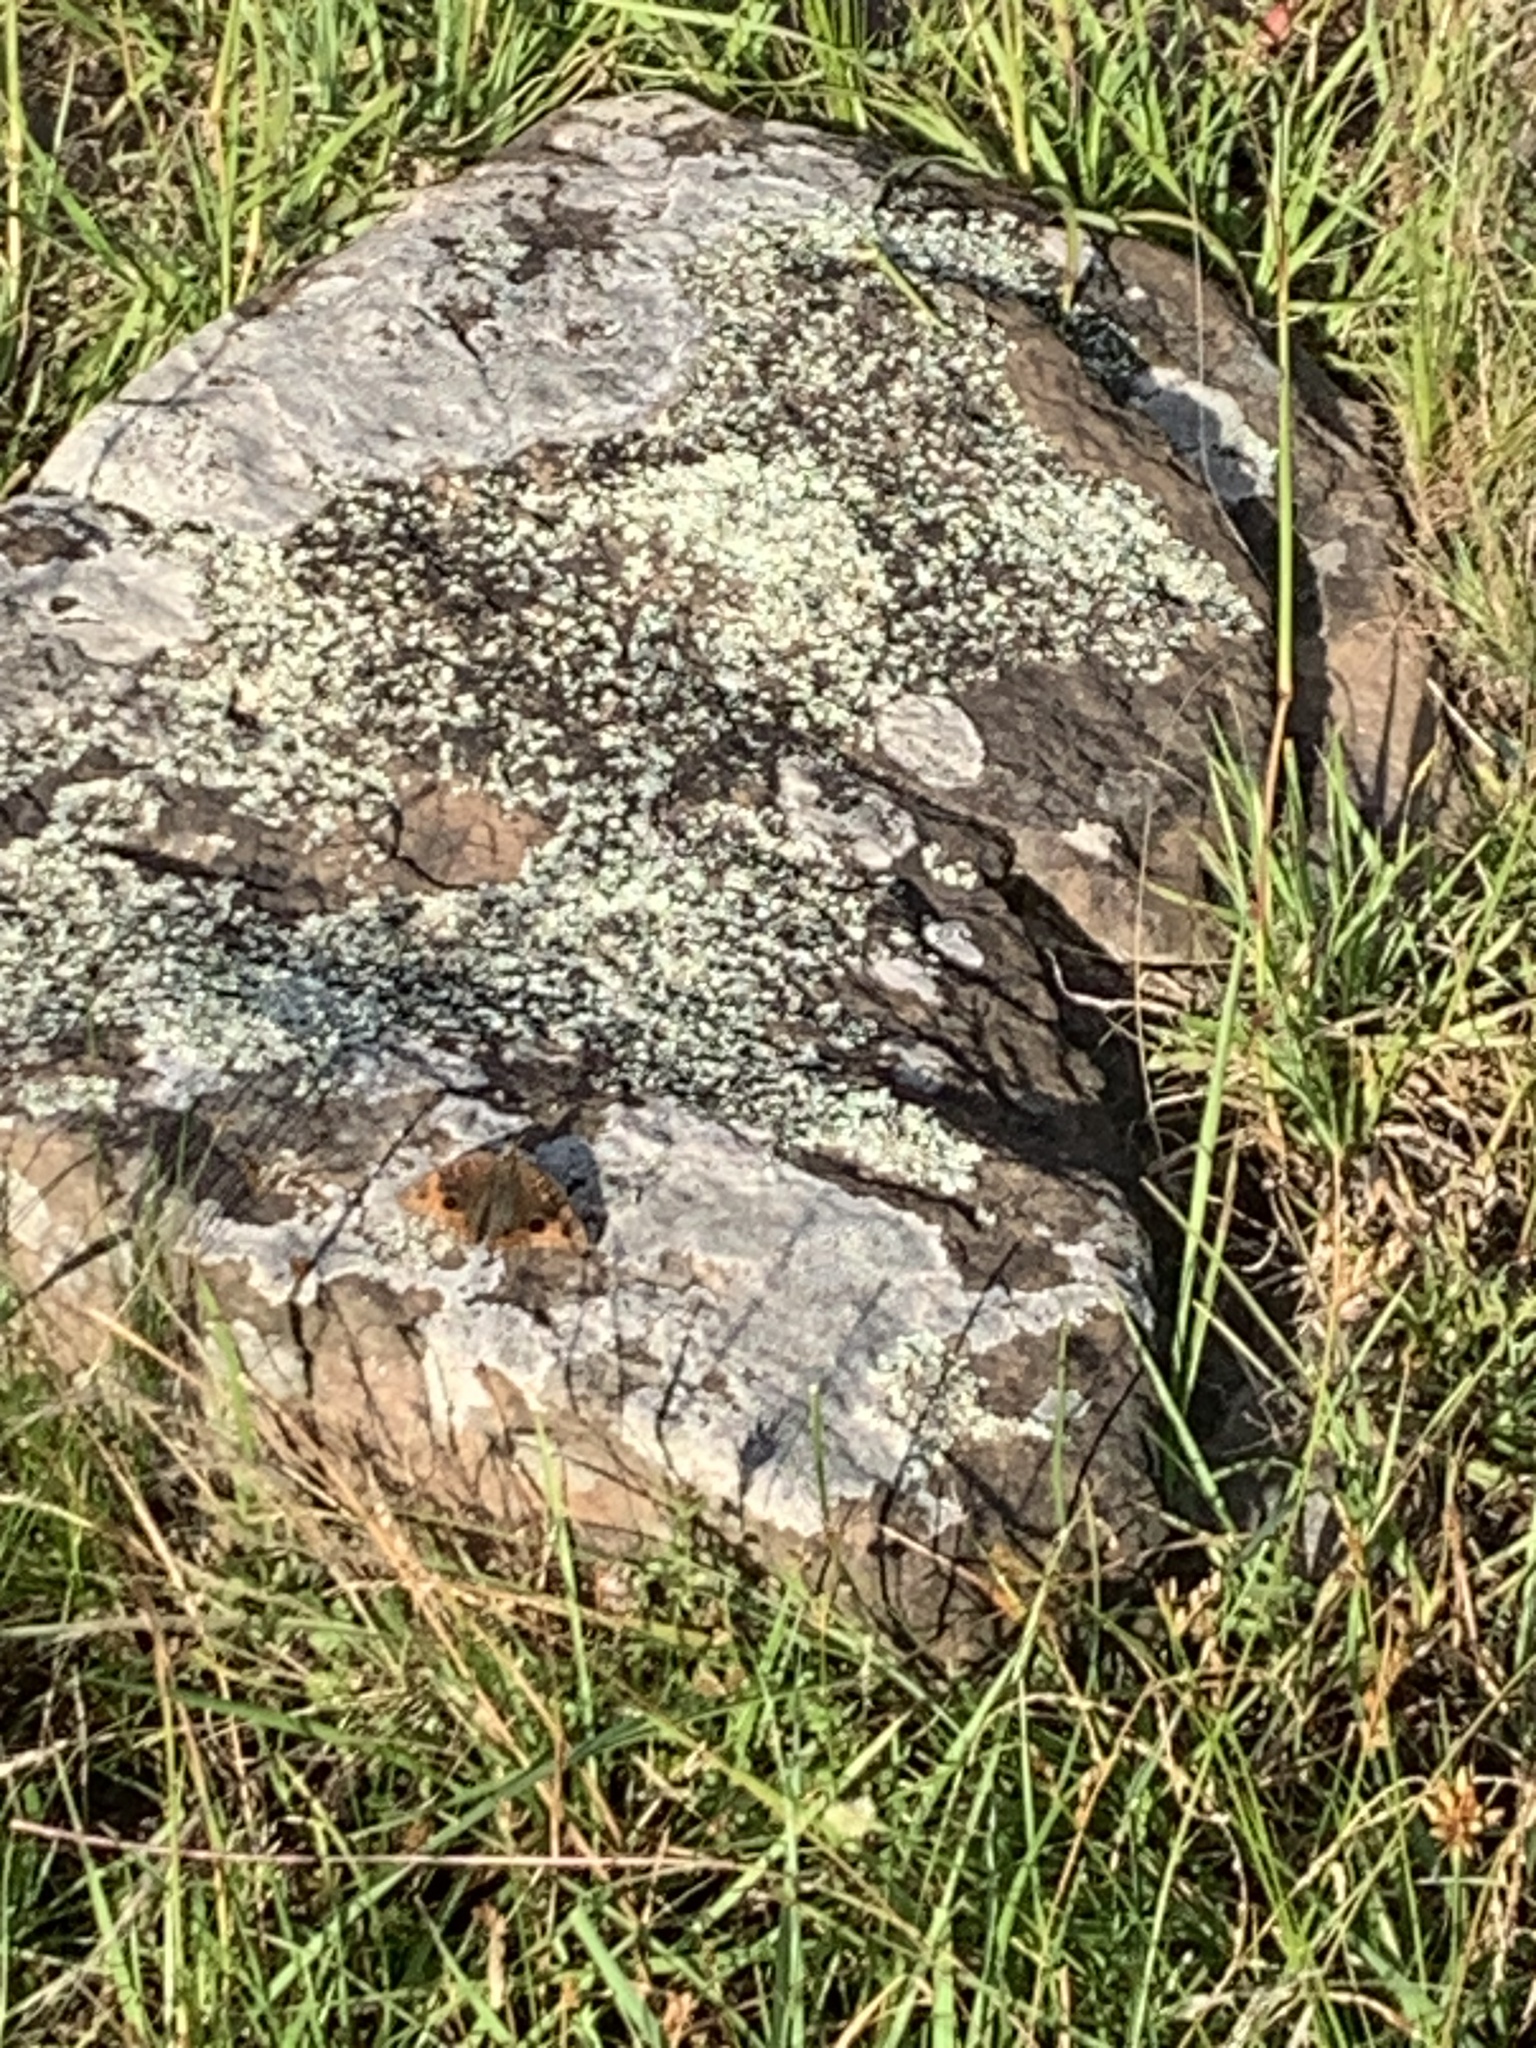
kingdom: Animalia
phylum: Arthropoda
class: Insecta
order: Lepidoptera
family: Nymphalidae
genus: Junonia
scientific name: Junonia lavinia
